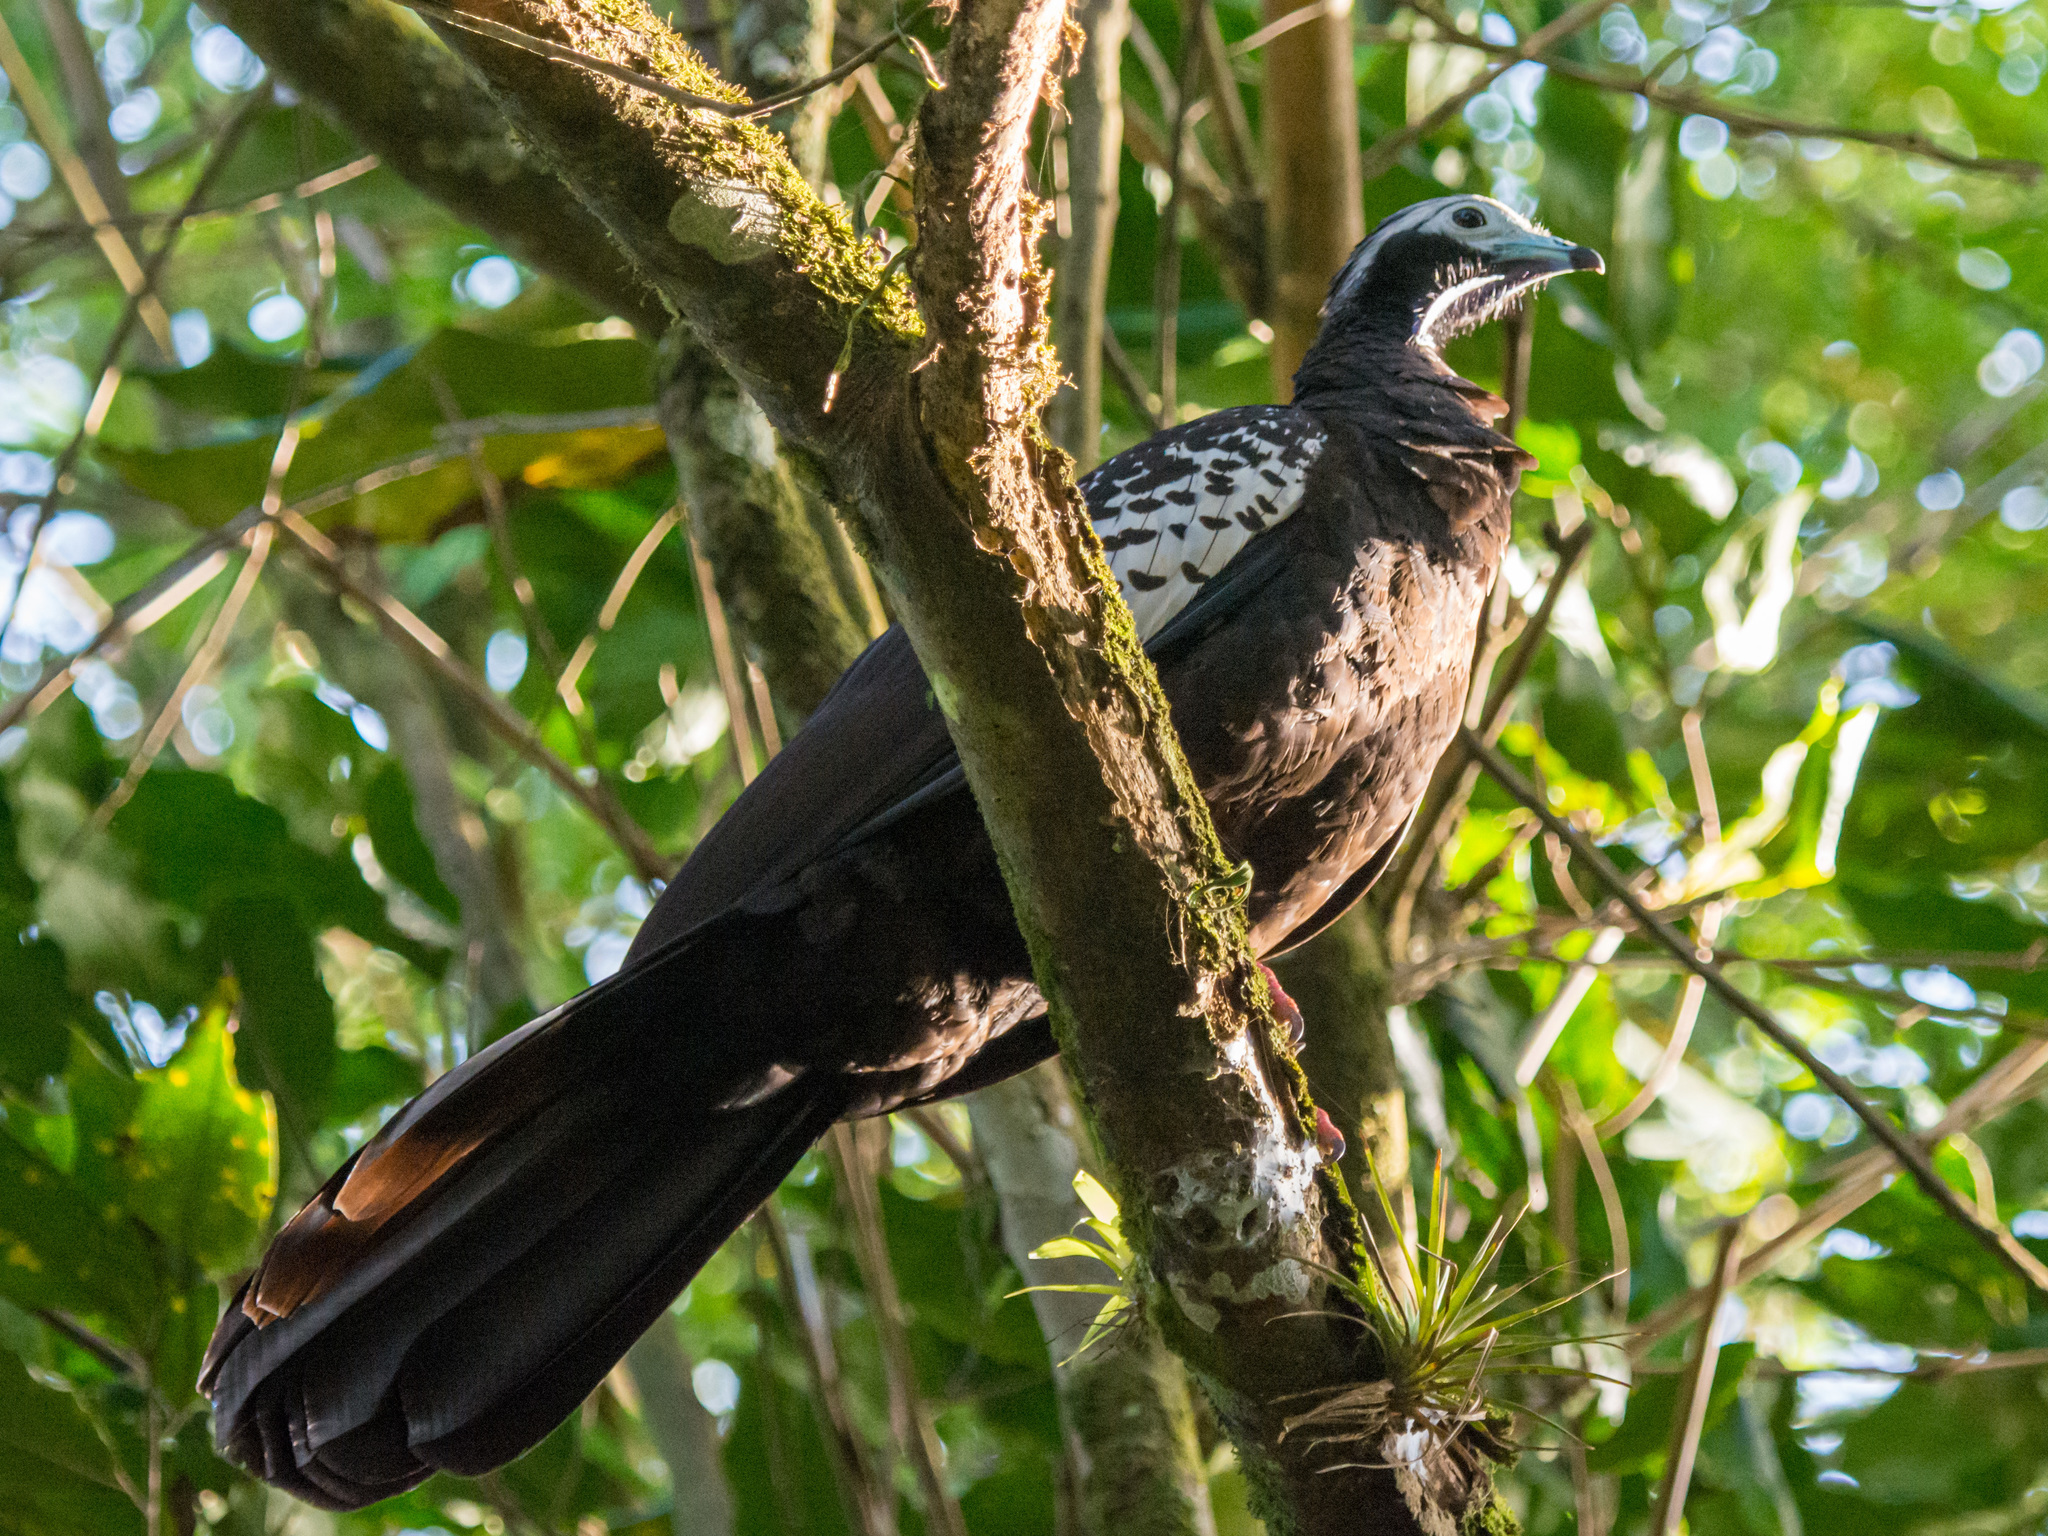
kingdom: Animalia
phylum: Chordata
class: Aves
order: Galliformes
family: Cracidae
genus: Pipile
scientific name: Pipile pipile
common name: Trinidad piping-guan
